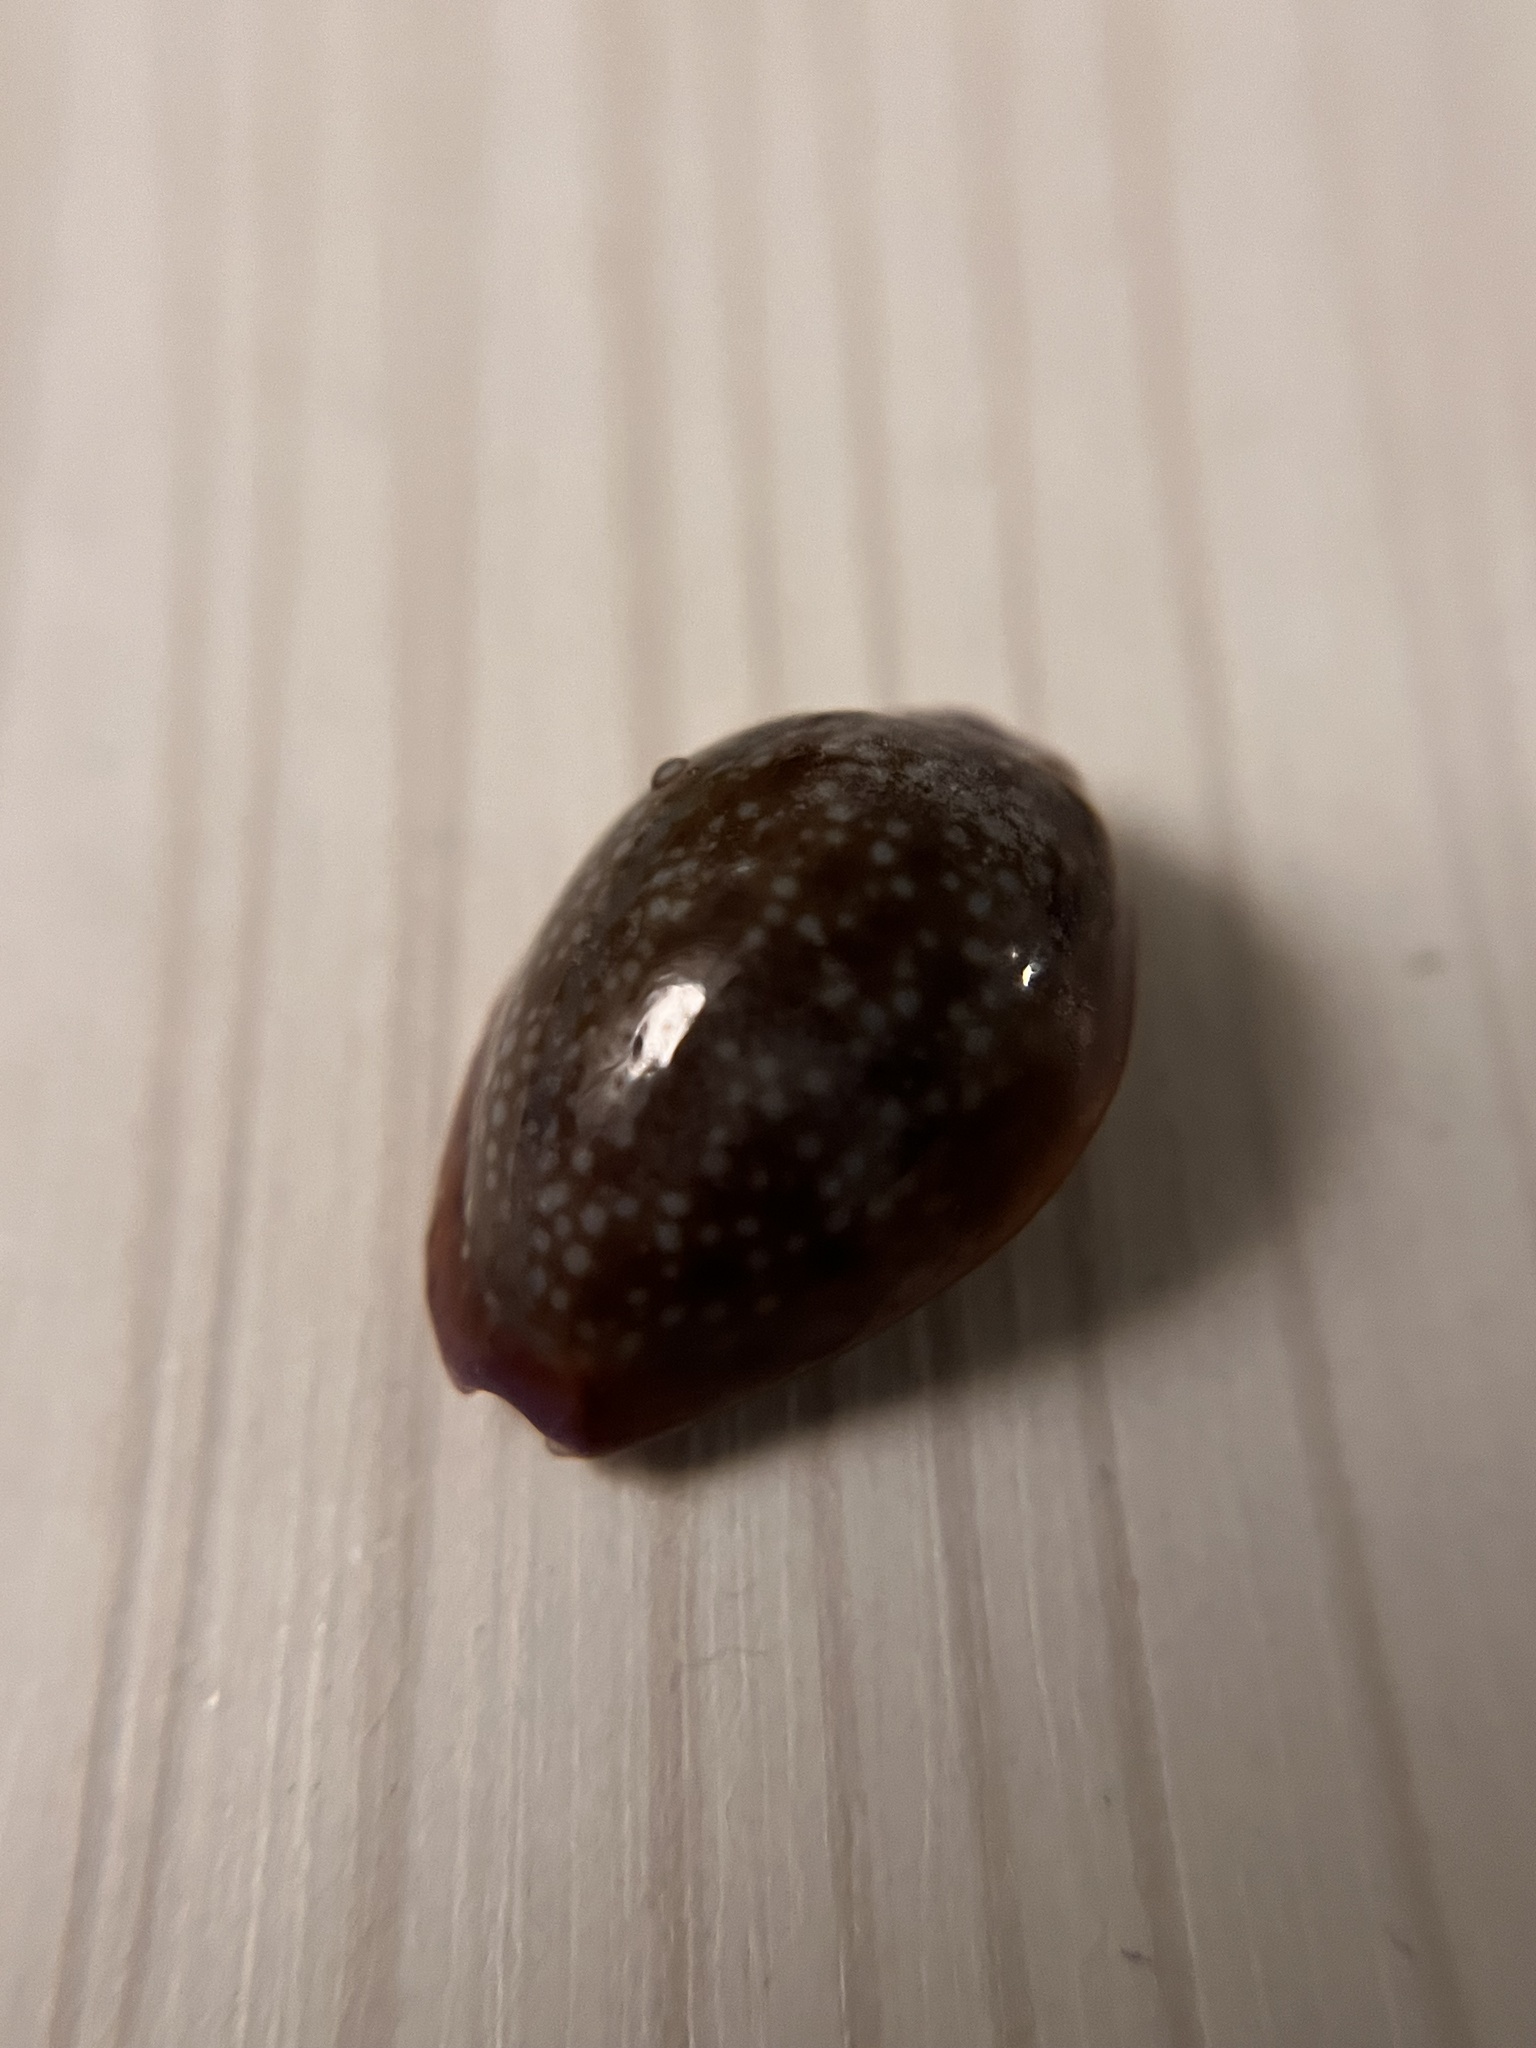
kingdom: Animalia
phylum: Mollusca
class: Gastropoda
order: Littorinimorpha
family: Cypraeidae
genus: Naria
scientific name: Naria helvola
